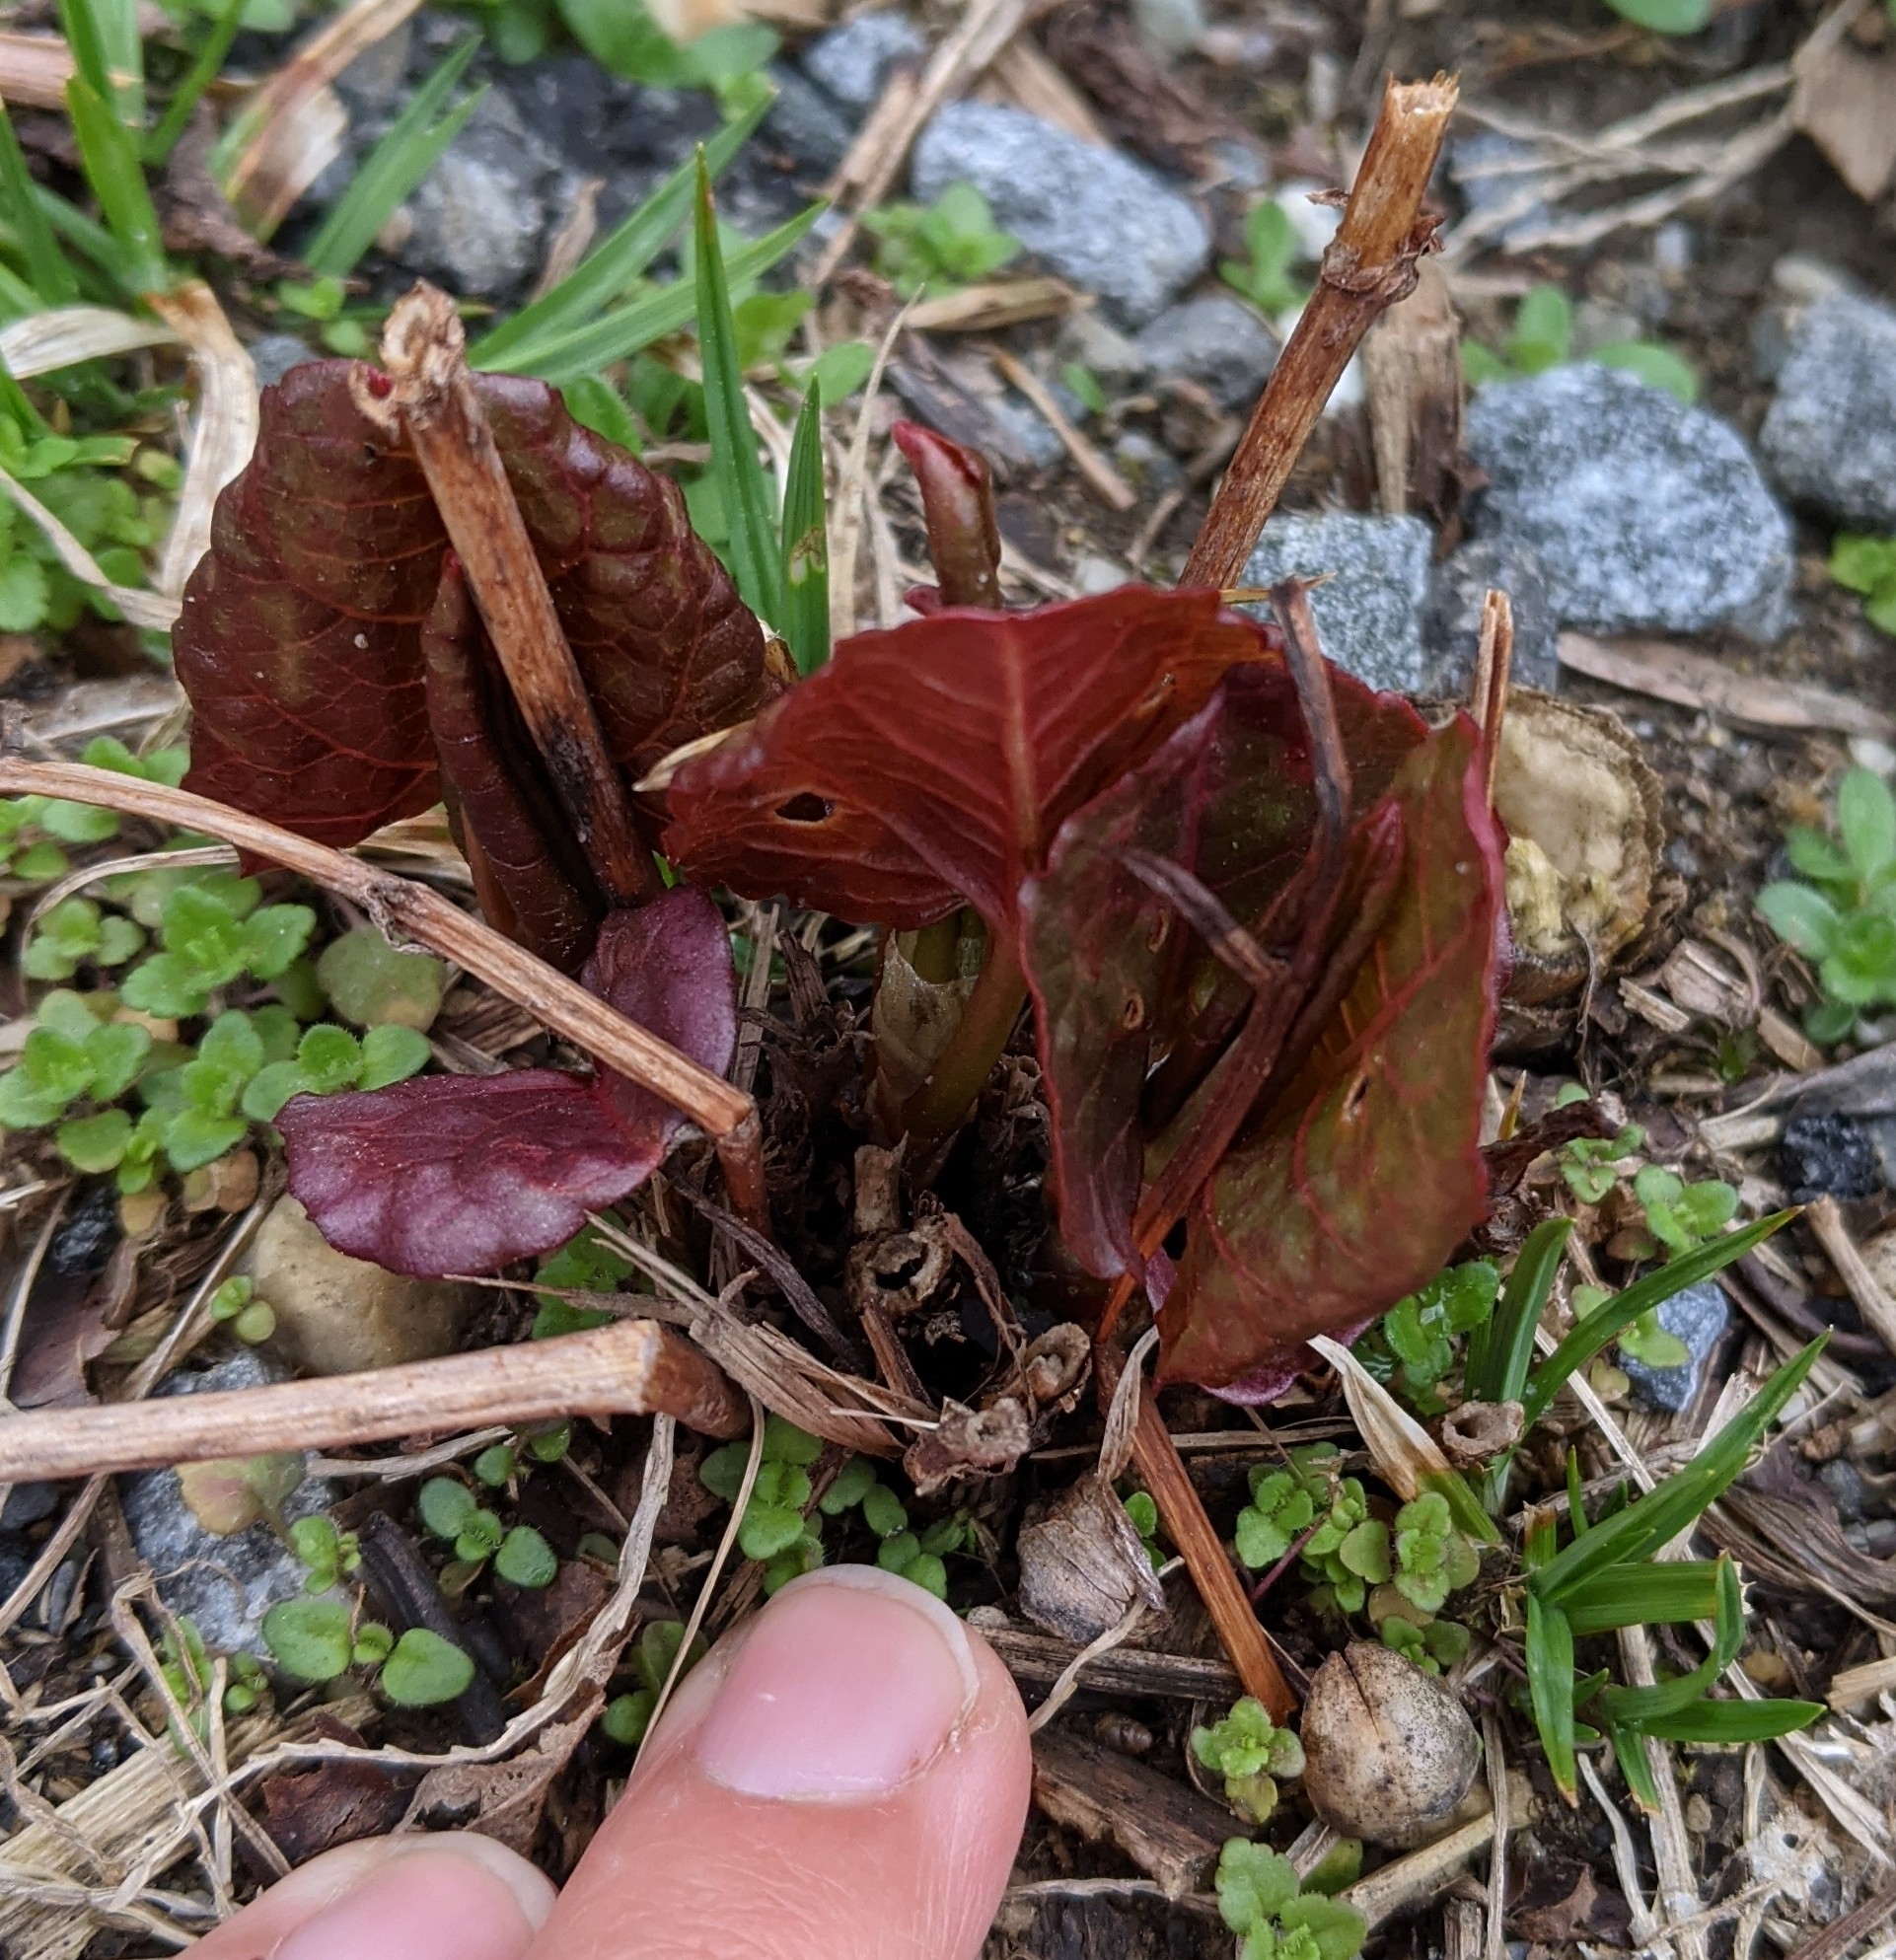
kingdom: Plantae
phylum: Tracheophyta
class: Magnoliopsida
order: Caryophyllales
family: Polygonaceae
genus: Reynoutria
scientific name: Reynoutria japonica
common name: Japanese knotweed
